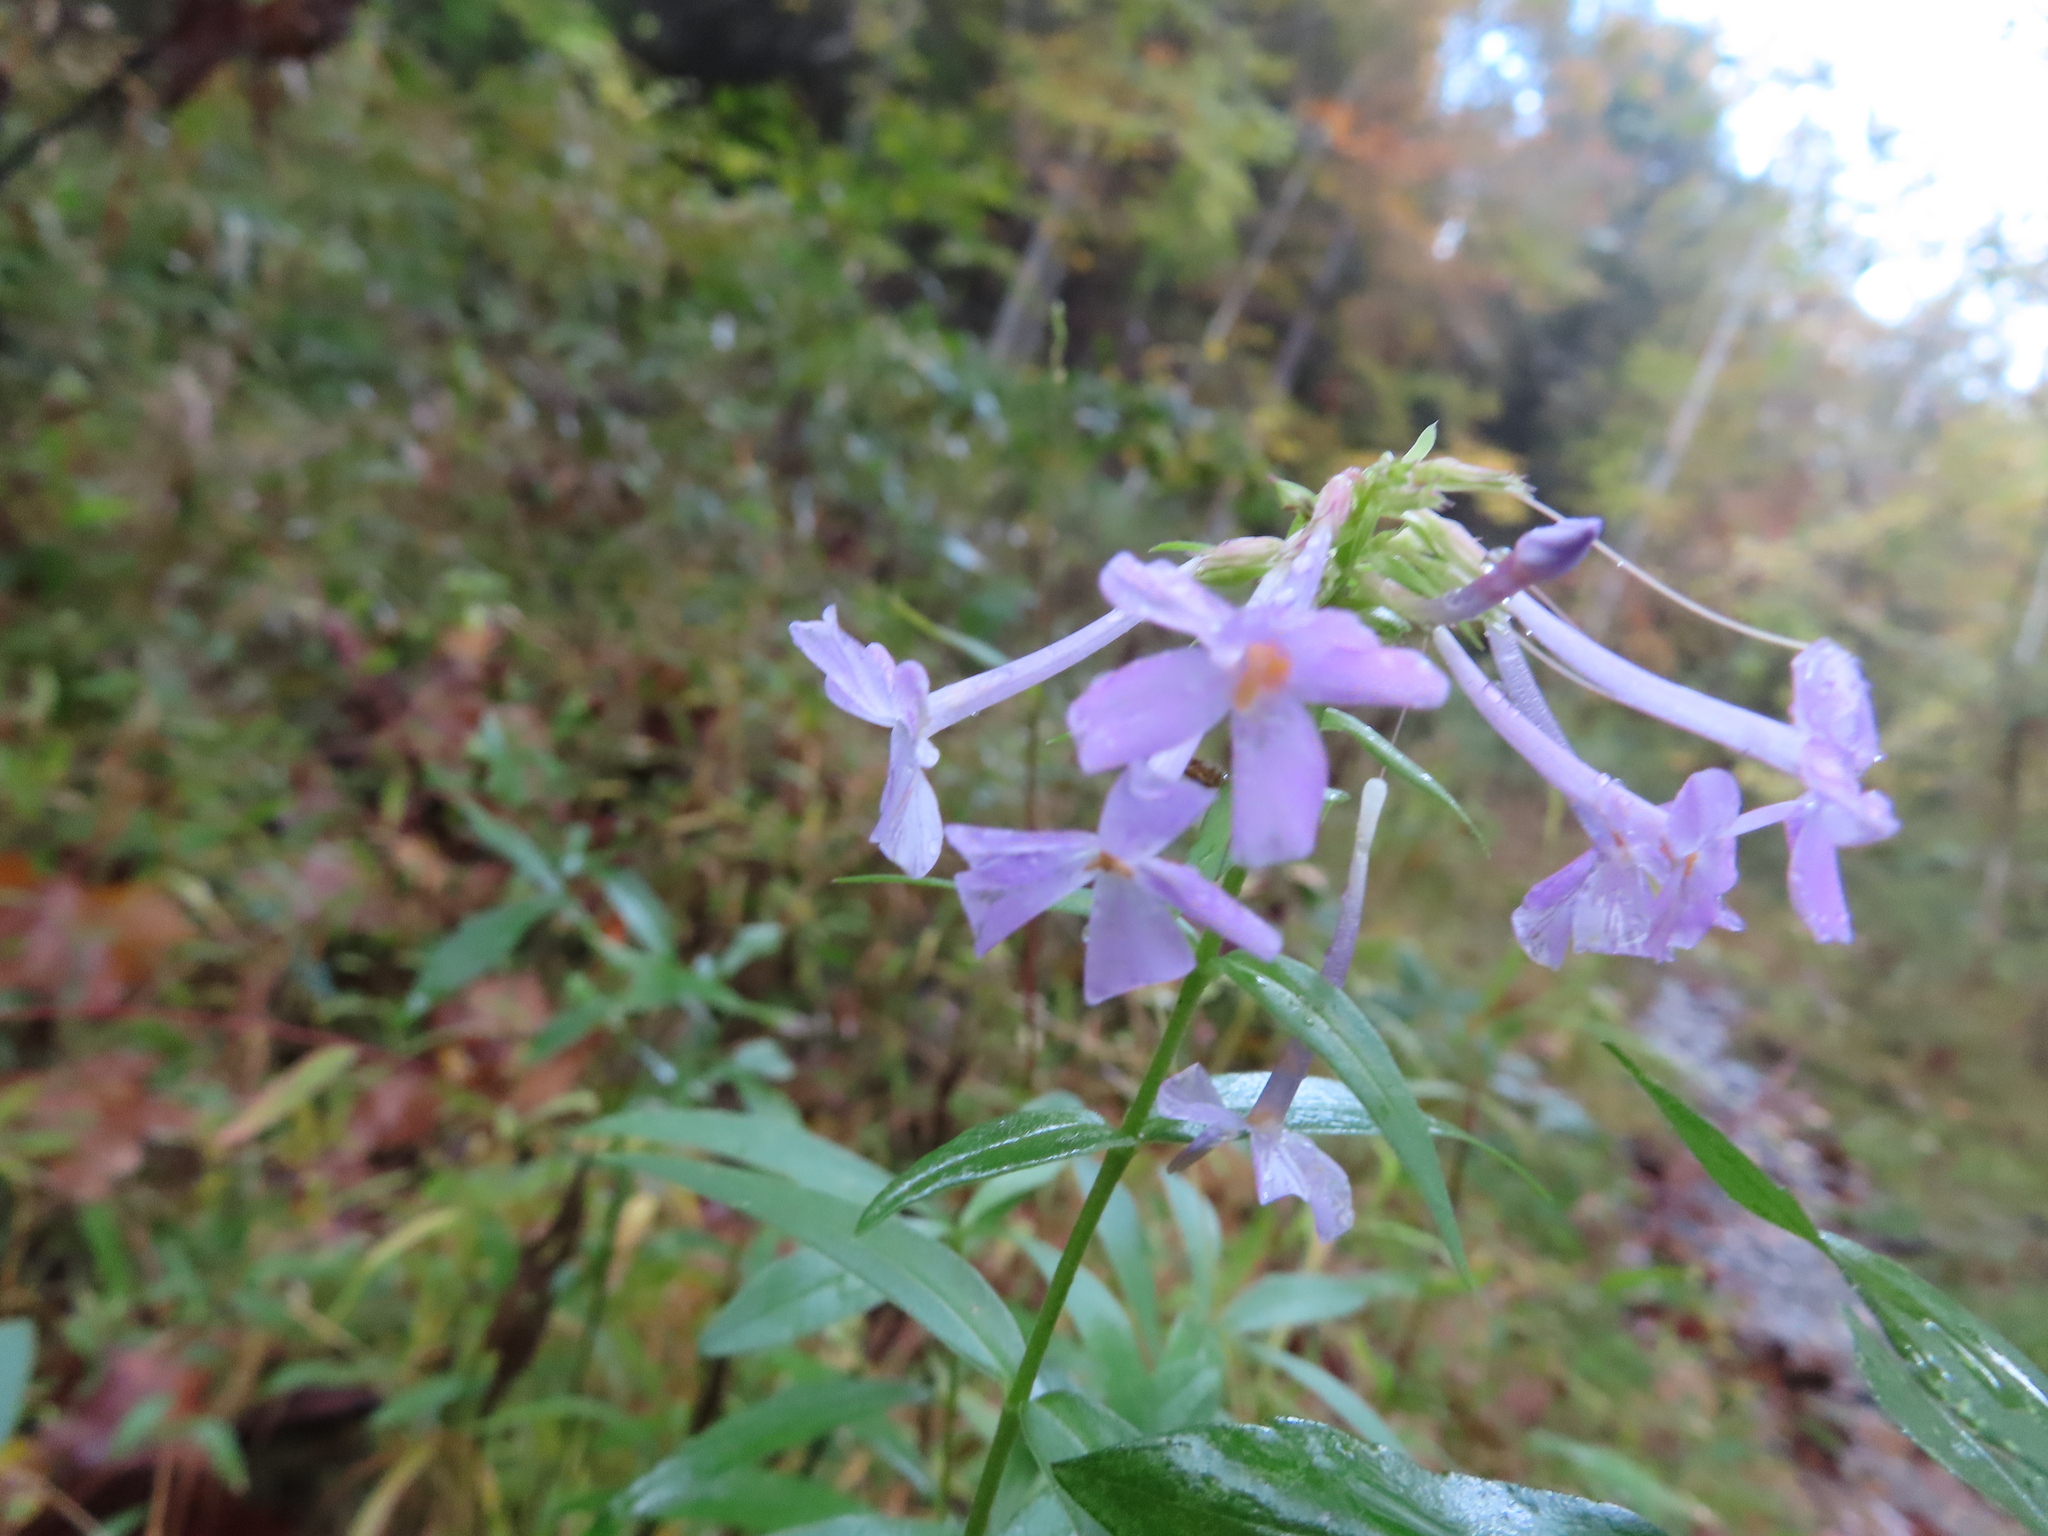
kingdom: Plantae
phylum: Tracheophyta
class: Magnoliopsida
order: Ericales
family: Polemoniaceae
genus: Phlox
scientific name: Phlox maculata
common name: Meadow phlox
